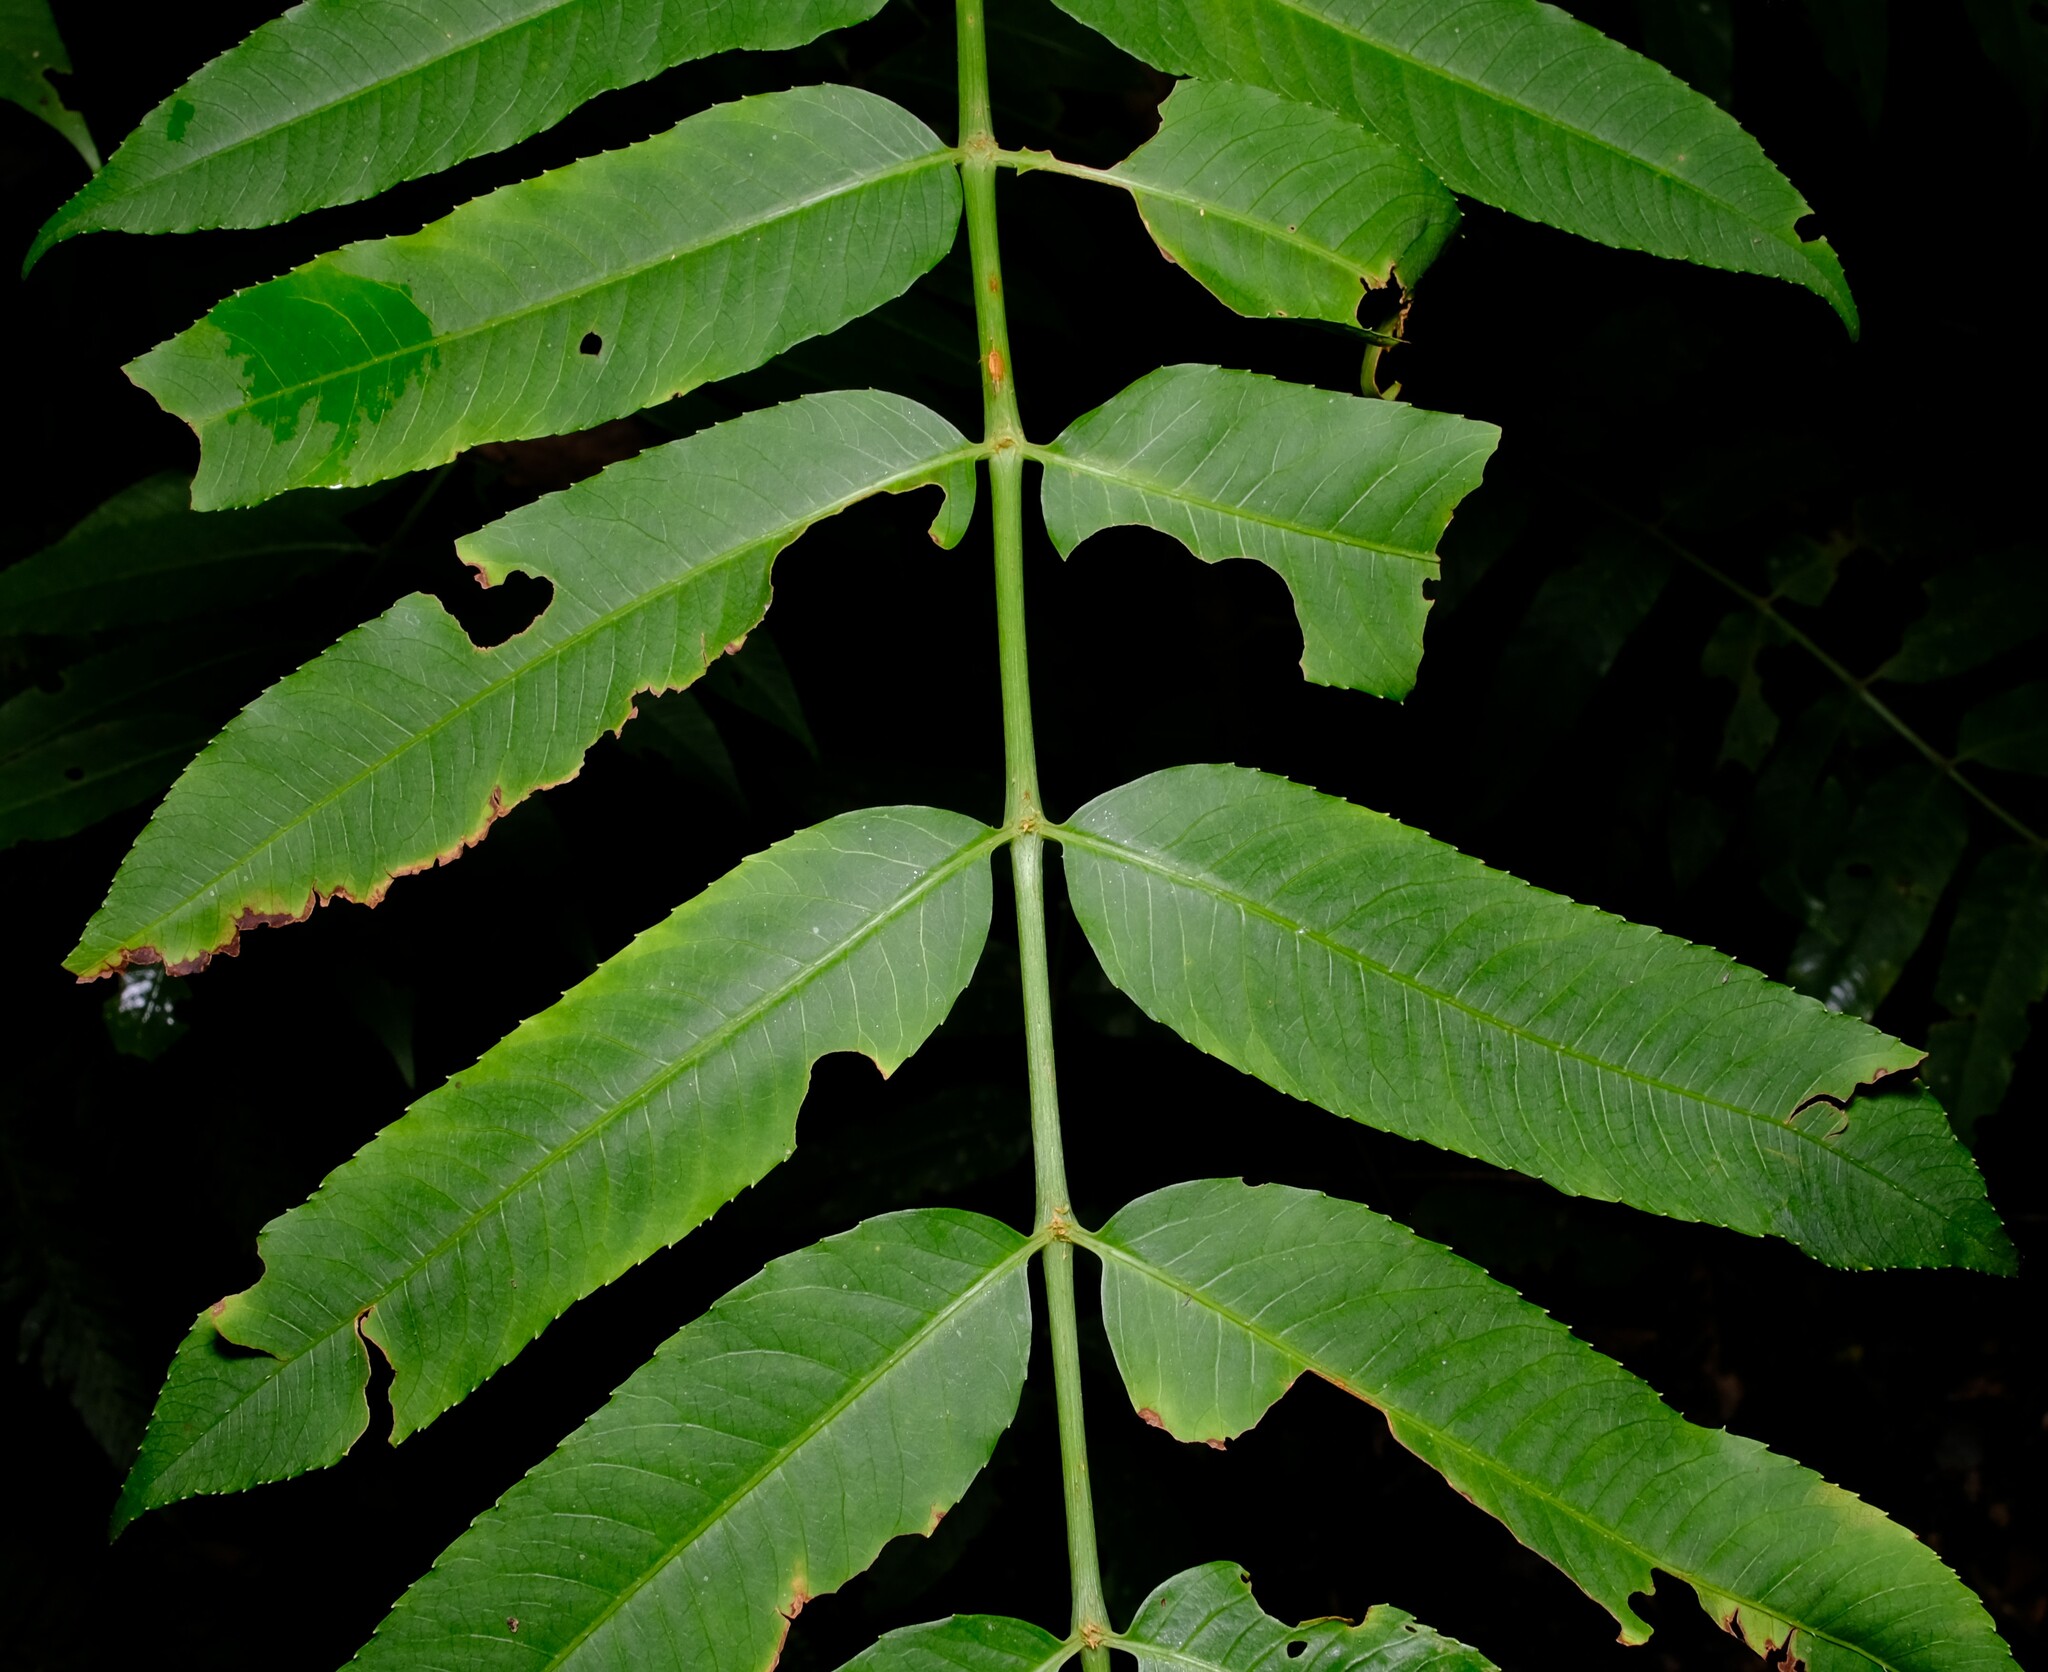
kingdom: Plantae
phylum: Tracheophyta
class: Magnoliopsida
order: Apiales
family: Araliaceae
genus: Polyscias
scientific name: Polyscias murrayi
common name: Pencil cedar
